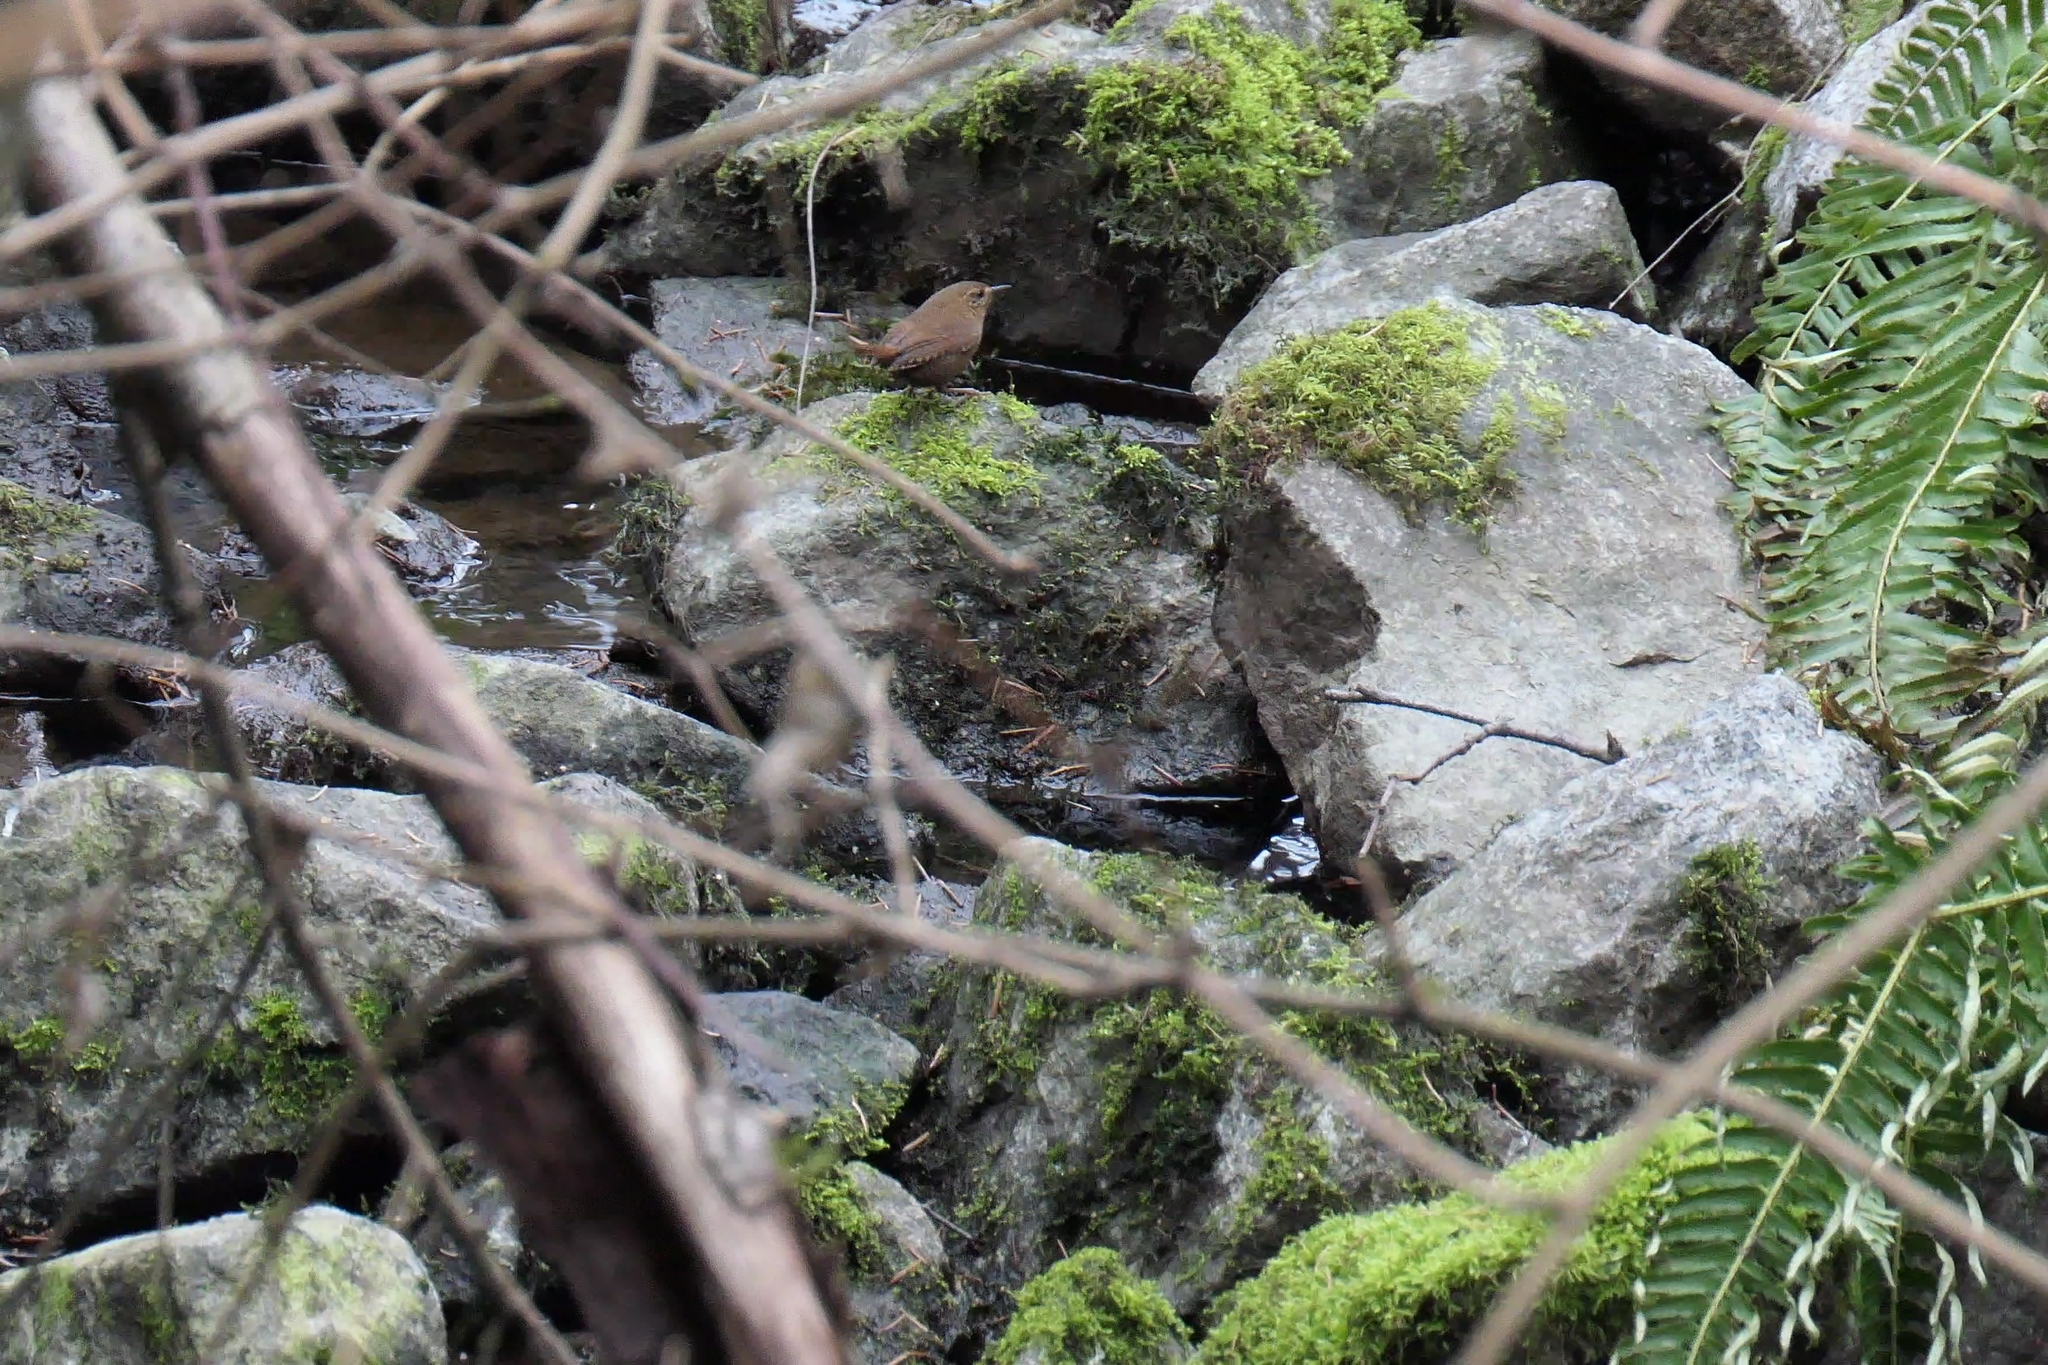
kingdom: Animalia
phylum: Chordata
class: Aves
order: Passeriformes
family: Troglodytidae
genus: Troglodytes
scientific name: Troglodytes pacificus
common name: Pacific wren
